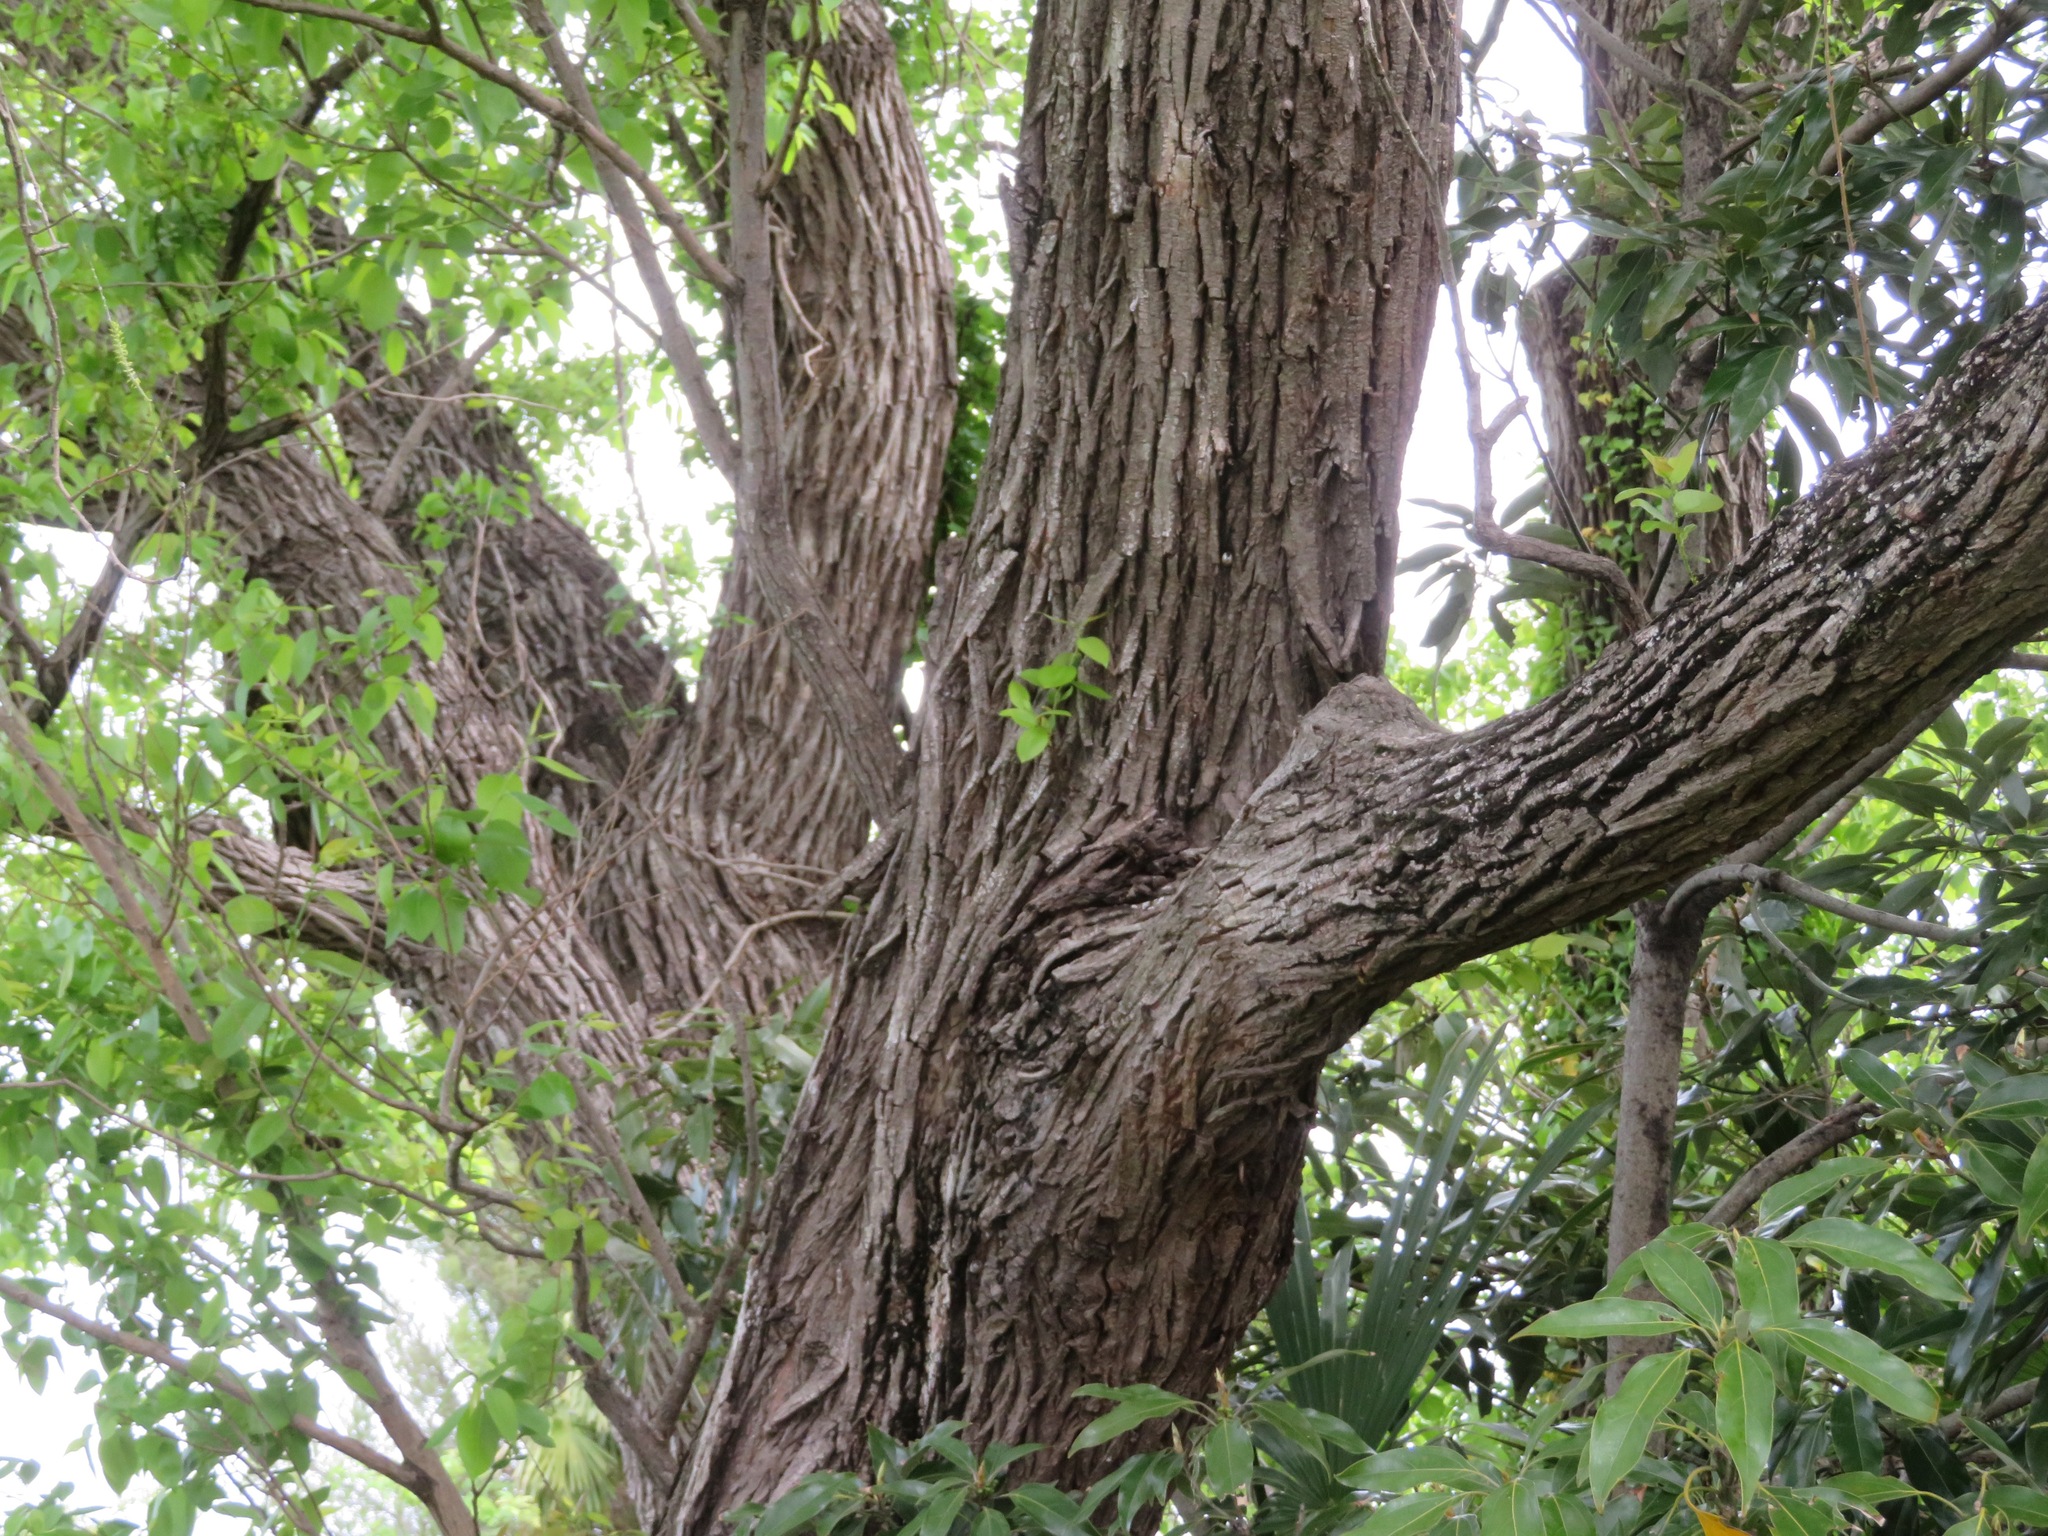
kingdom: Plantae
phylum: Tracheophyta
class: Magnoliopsida
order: Malpighiales
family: Salicaceae
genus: Salix
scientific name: Salix chaenomeloides
